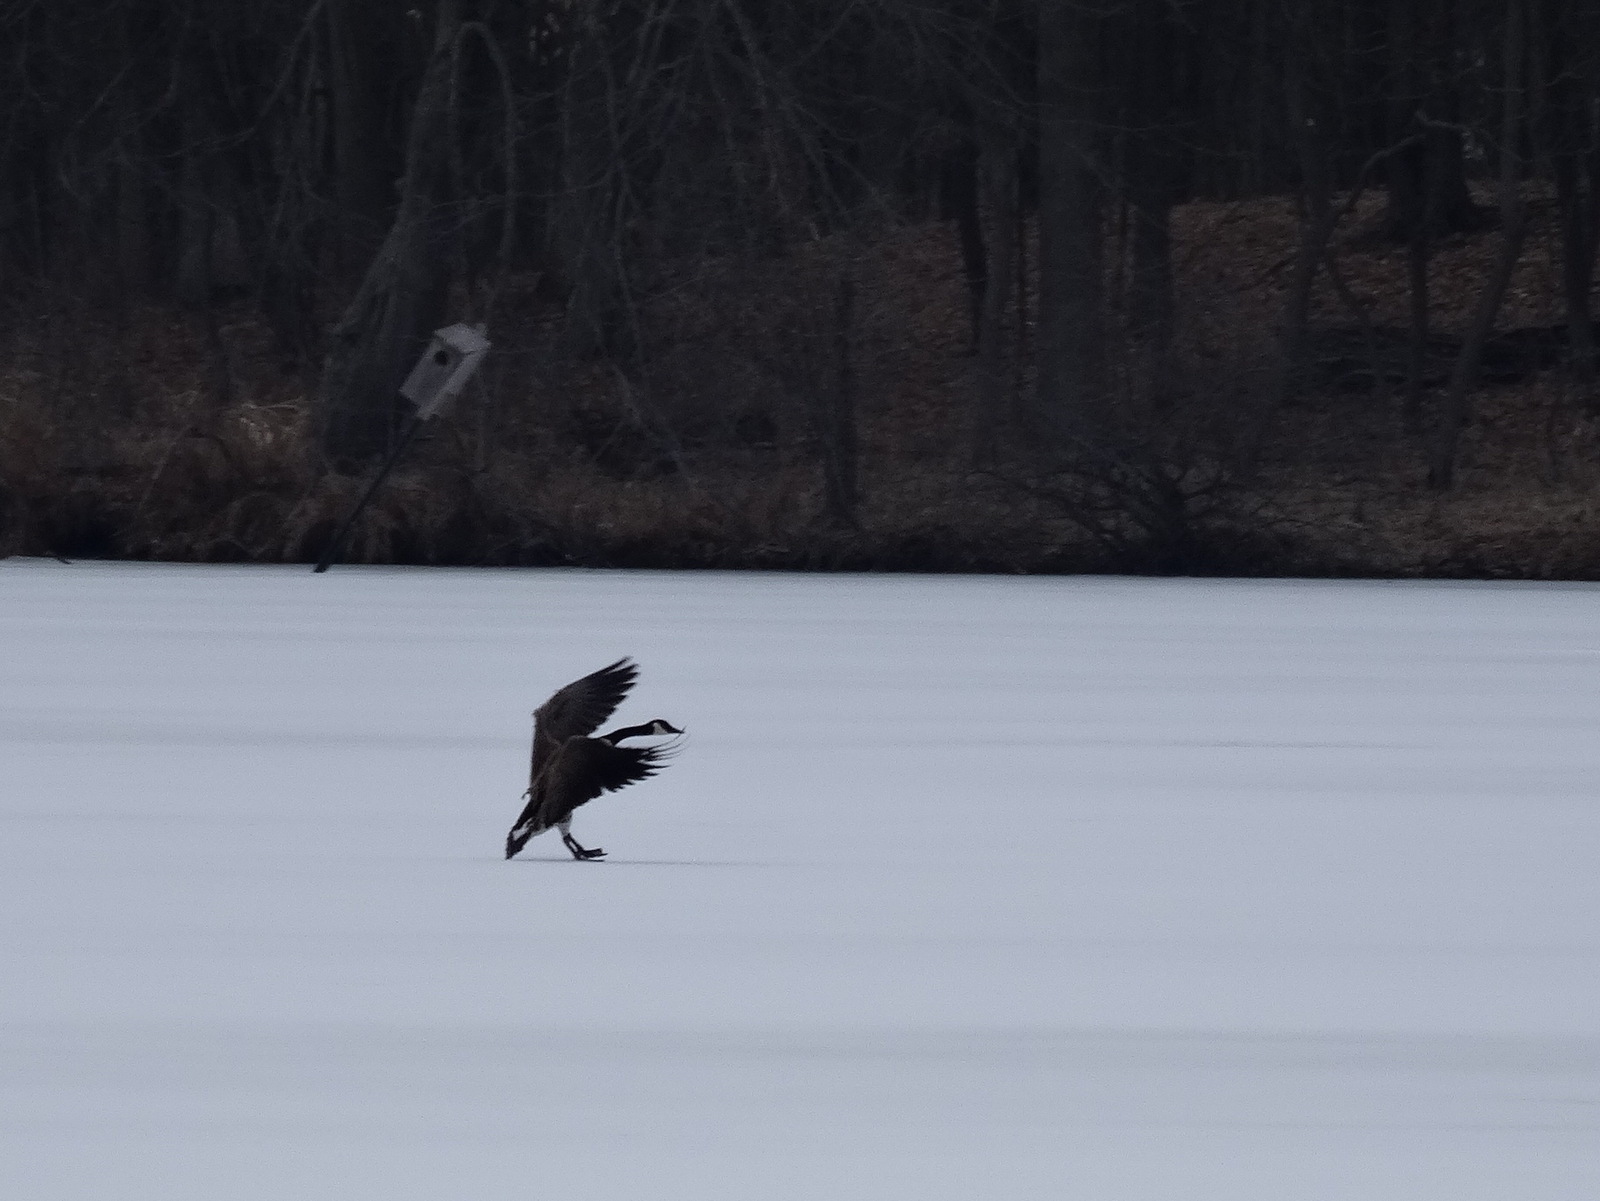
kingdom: Animalia
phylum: Chordata
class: Aves
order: Anseriformes
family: Anatidae
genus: Branta
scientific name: Branta canadensis
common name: Canada goose
